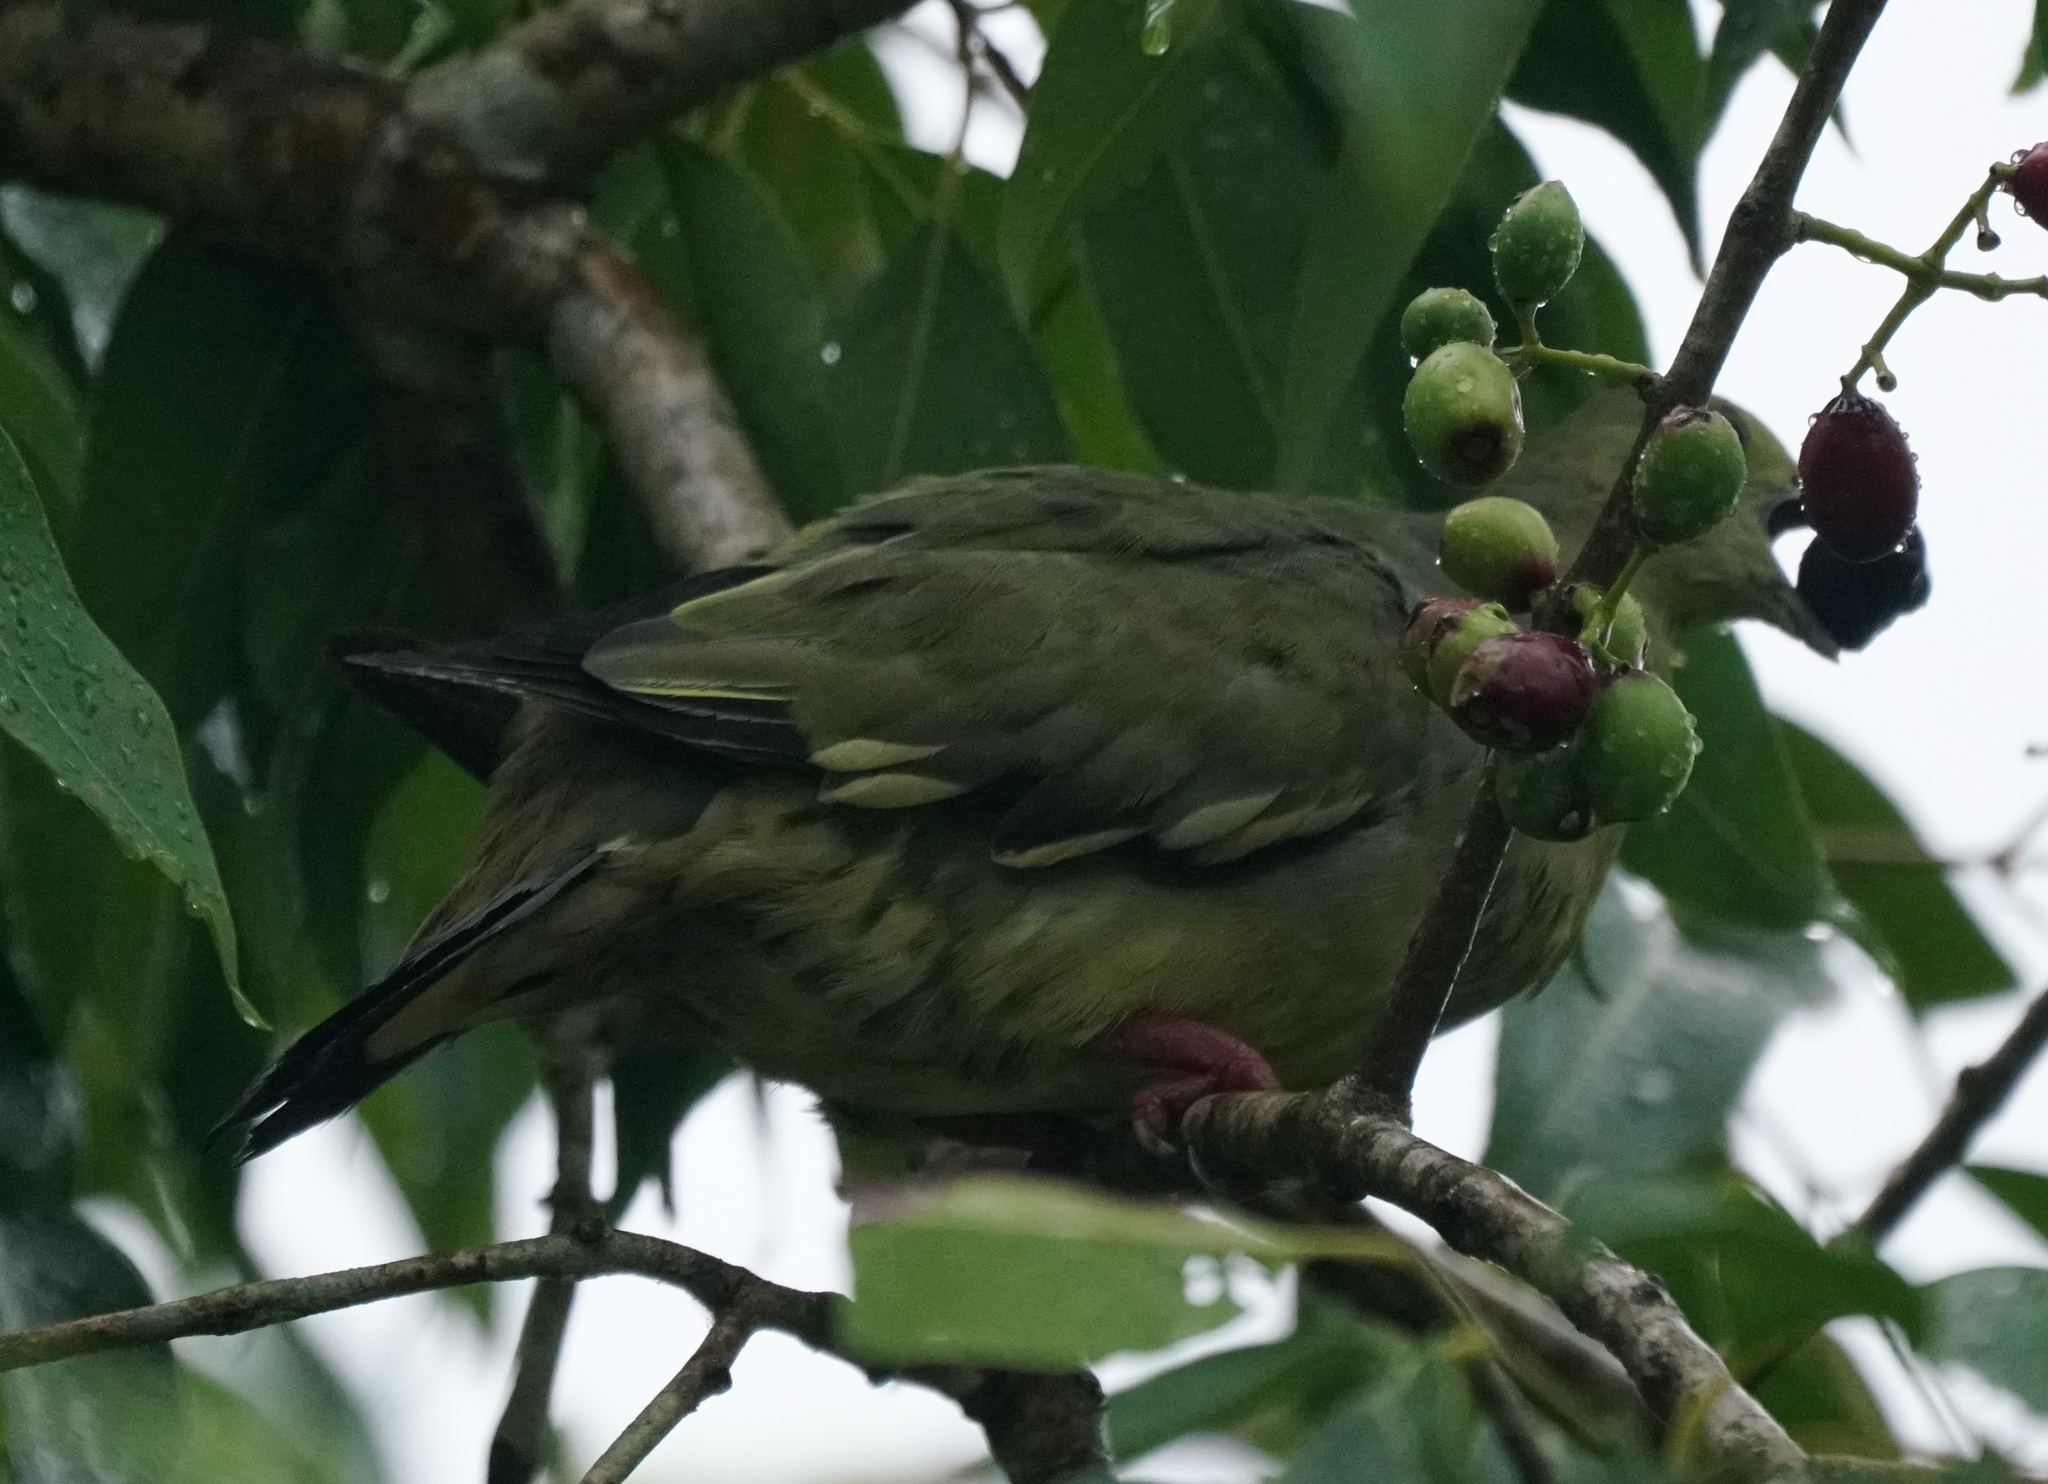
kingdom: Animalia
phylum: Chordata
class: Aves
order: Columbiformes
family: Columbidae
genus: Treron
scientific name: Treron vernans
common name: Pink-necked green pigeon
